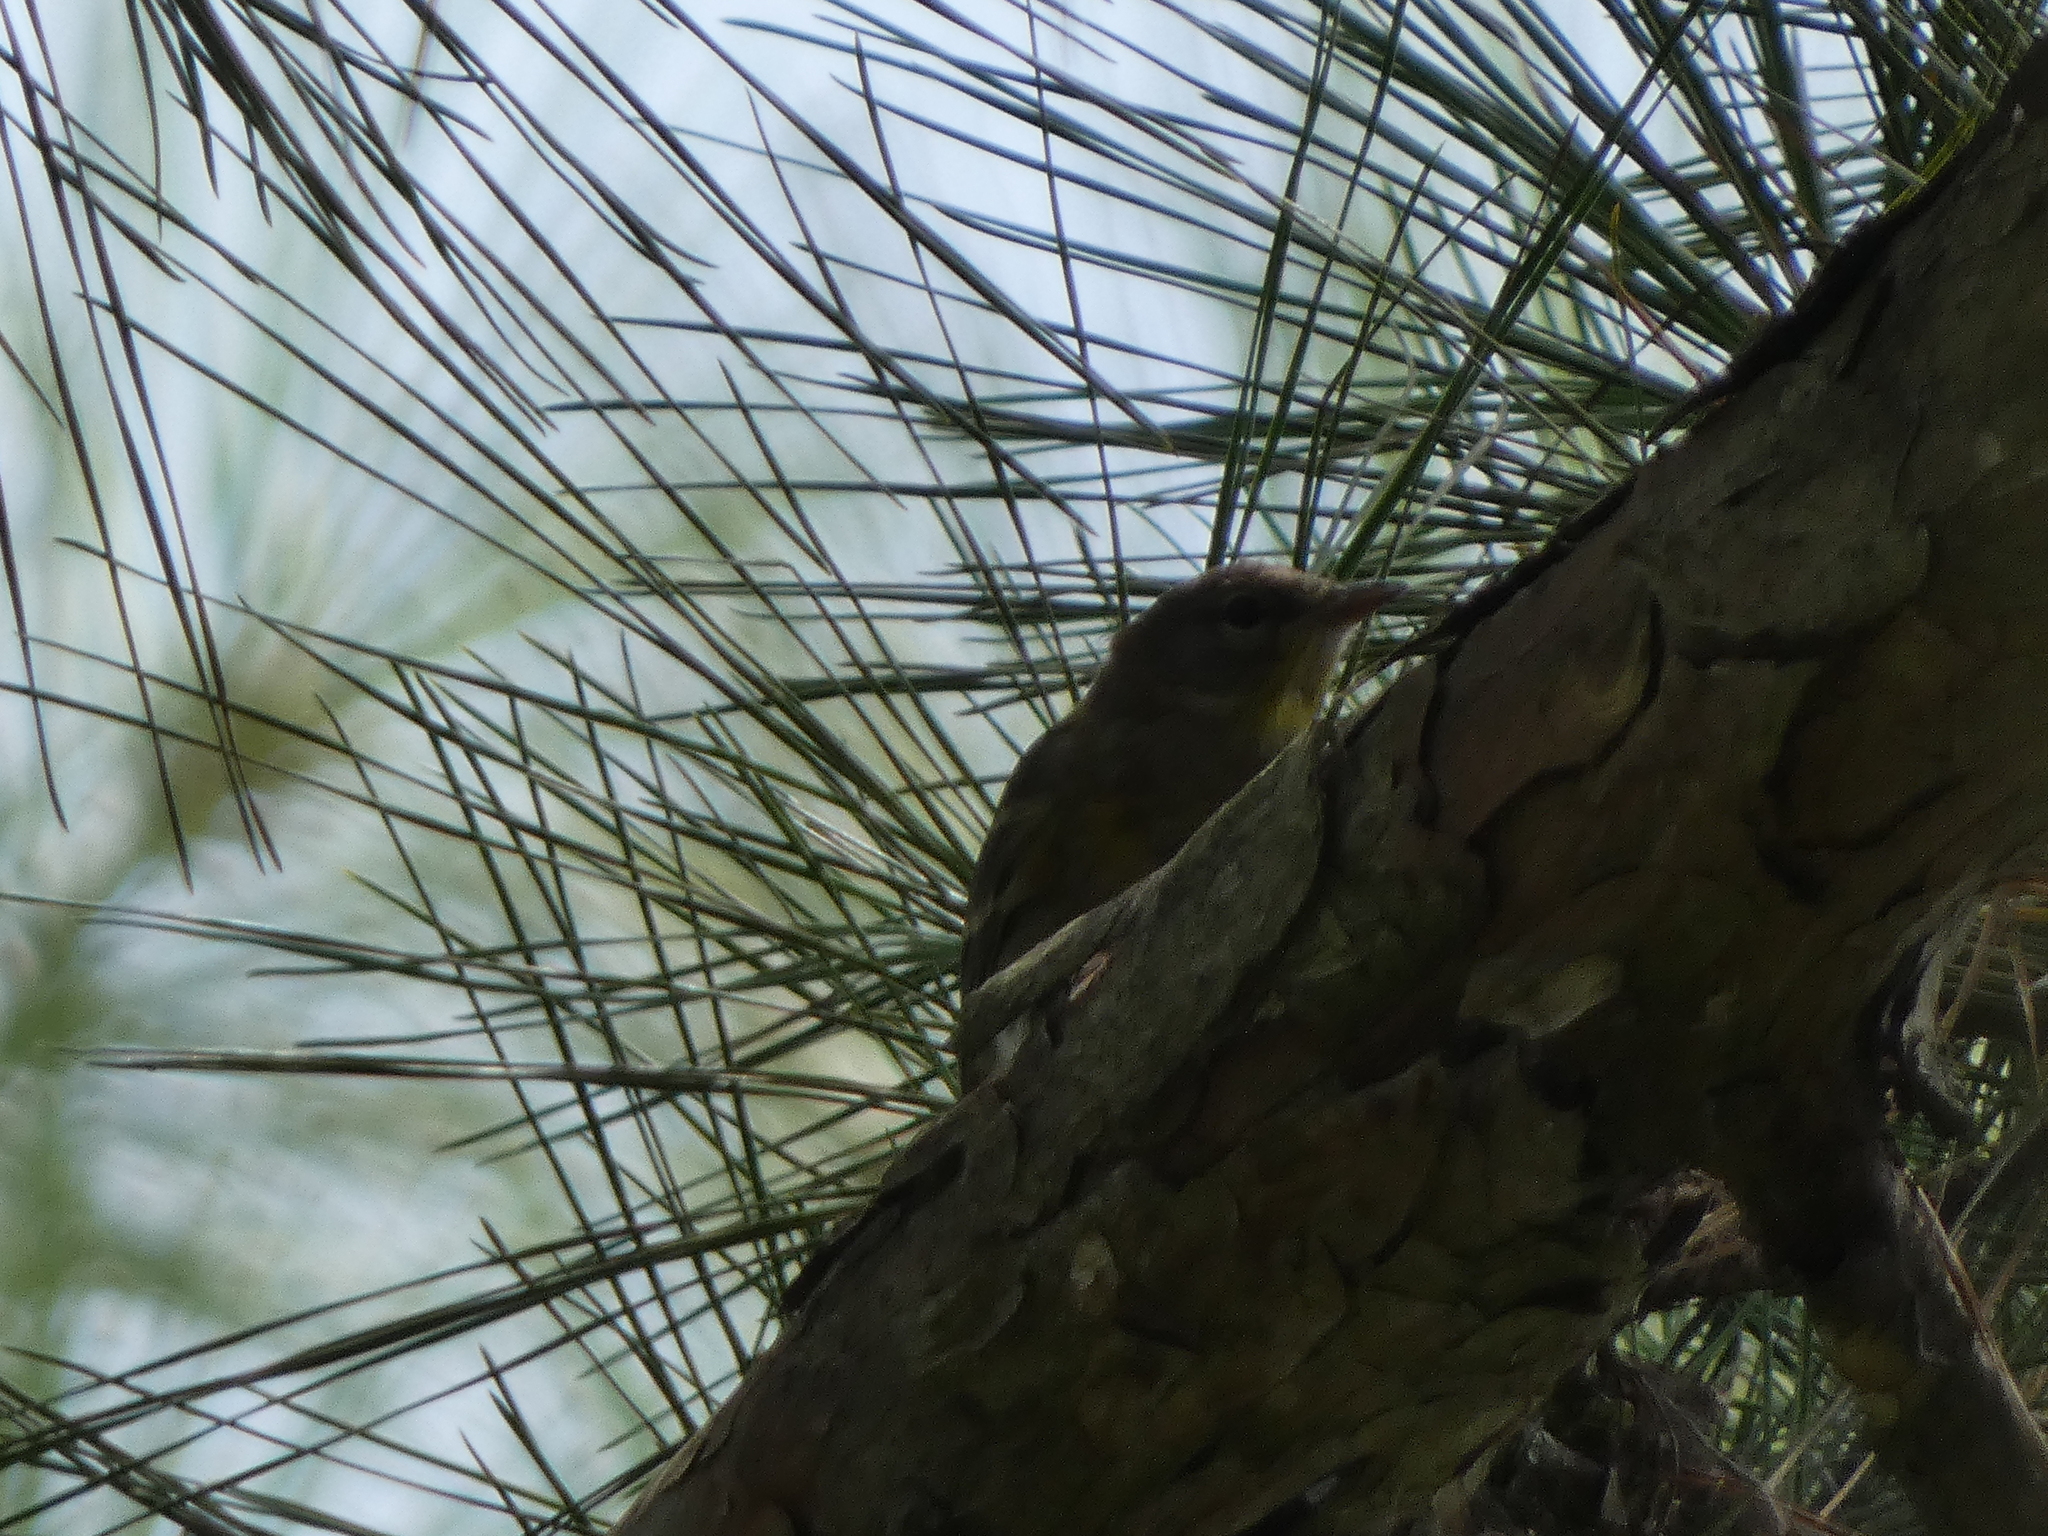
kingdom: Animalia
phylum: Chordata
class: Aves
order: Passeriformes
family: Parulidae
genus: Setophaga
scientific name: Setophaga pinus
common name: Pine warbler
